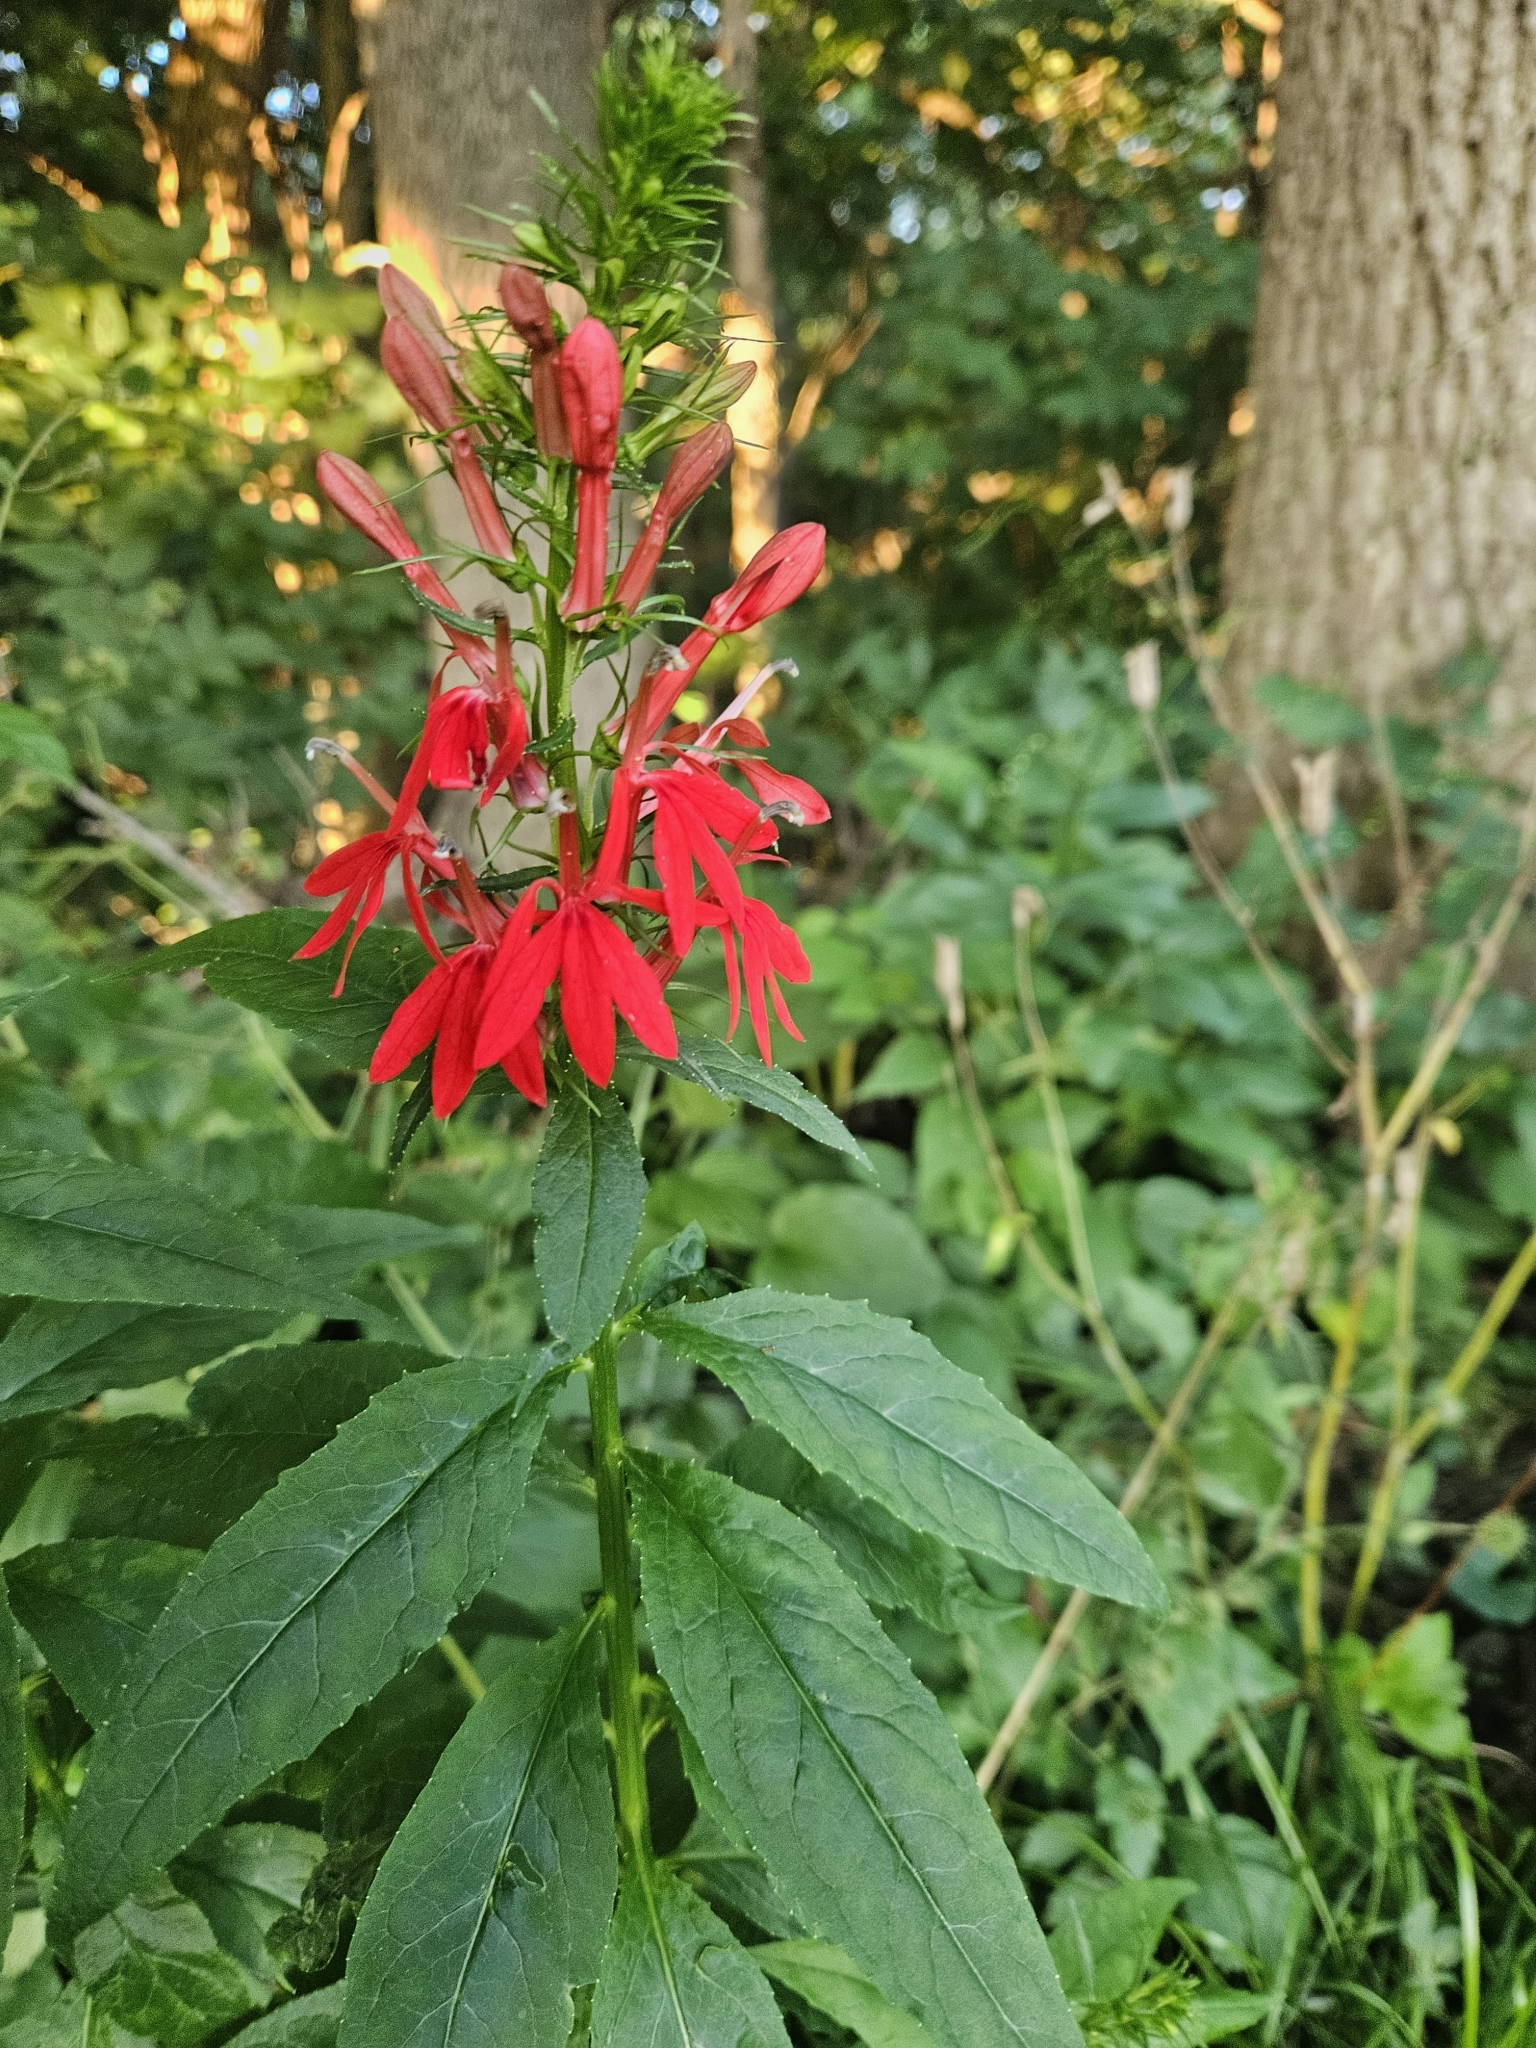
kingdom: Plantae
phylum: Tracheophyta
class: Magnoliopsida
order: Asterales
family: Campanulaceae
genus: Lobelia
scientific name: Lobelia cardinalis
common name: Cardinal flower
